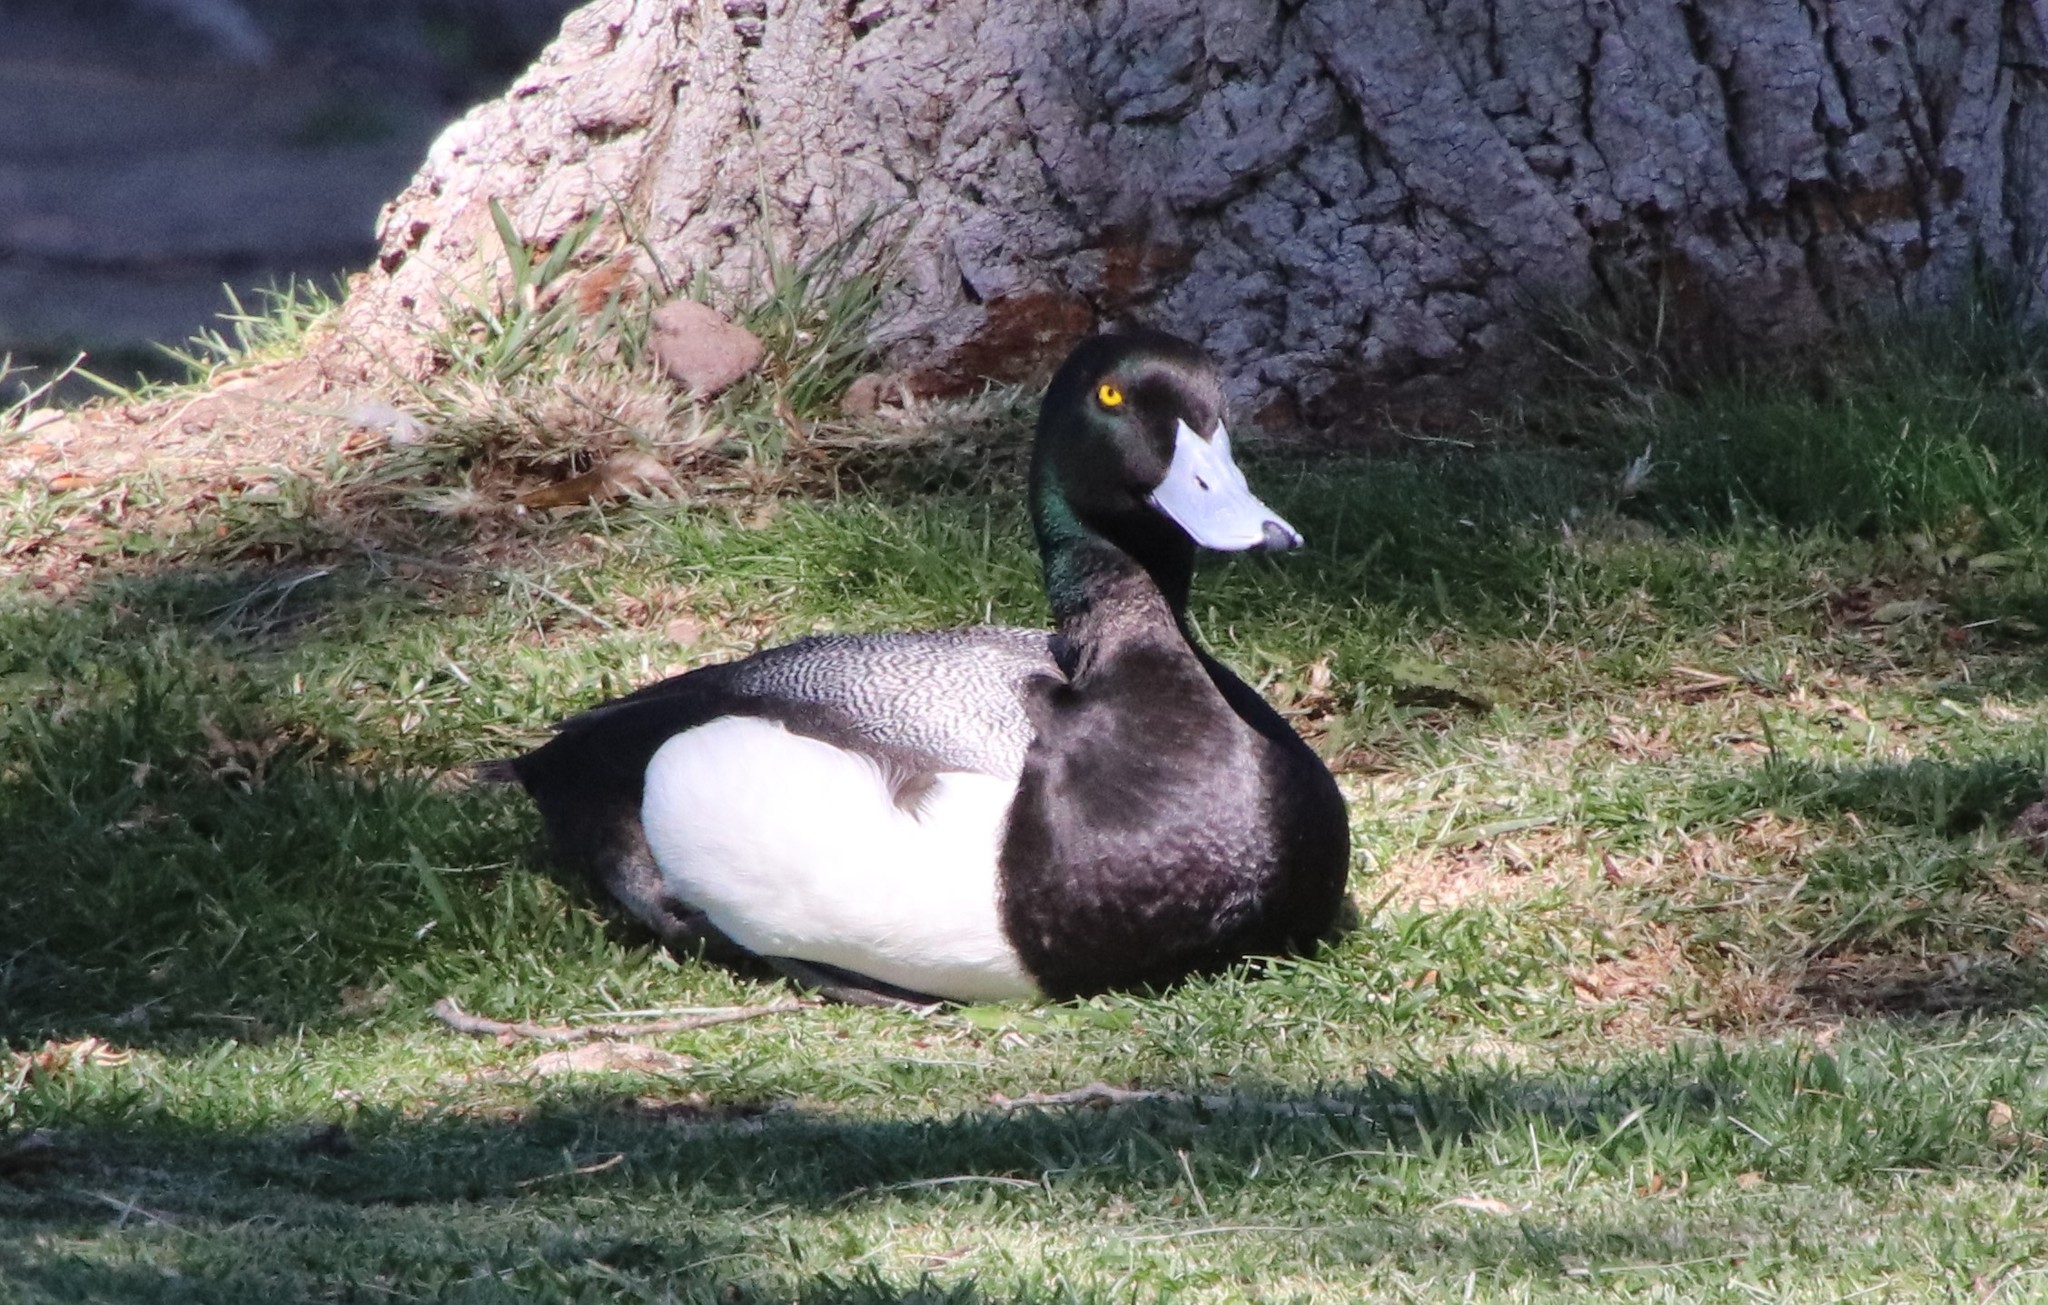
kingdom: Animalia
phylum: Chordata
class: Aves
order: Anseriformes
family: Anatidae
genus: Aythya
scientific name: Aythya marila
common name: Greater scaup
